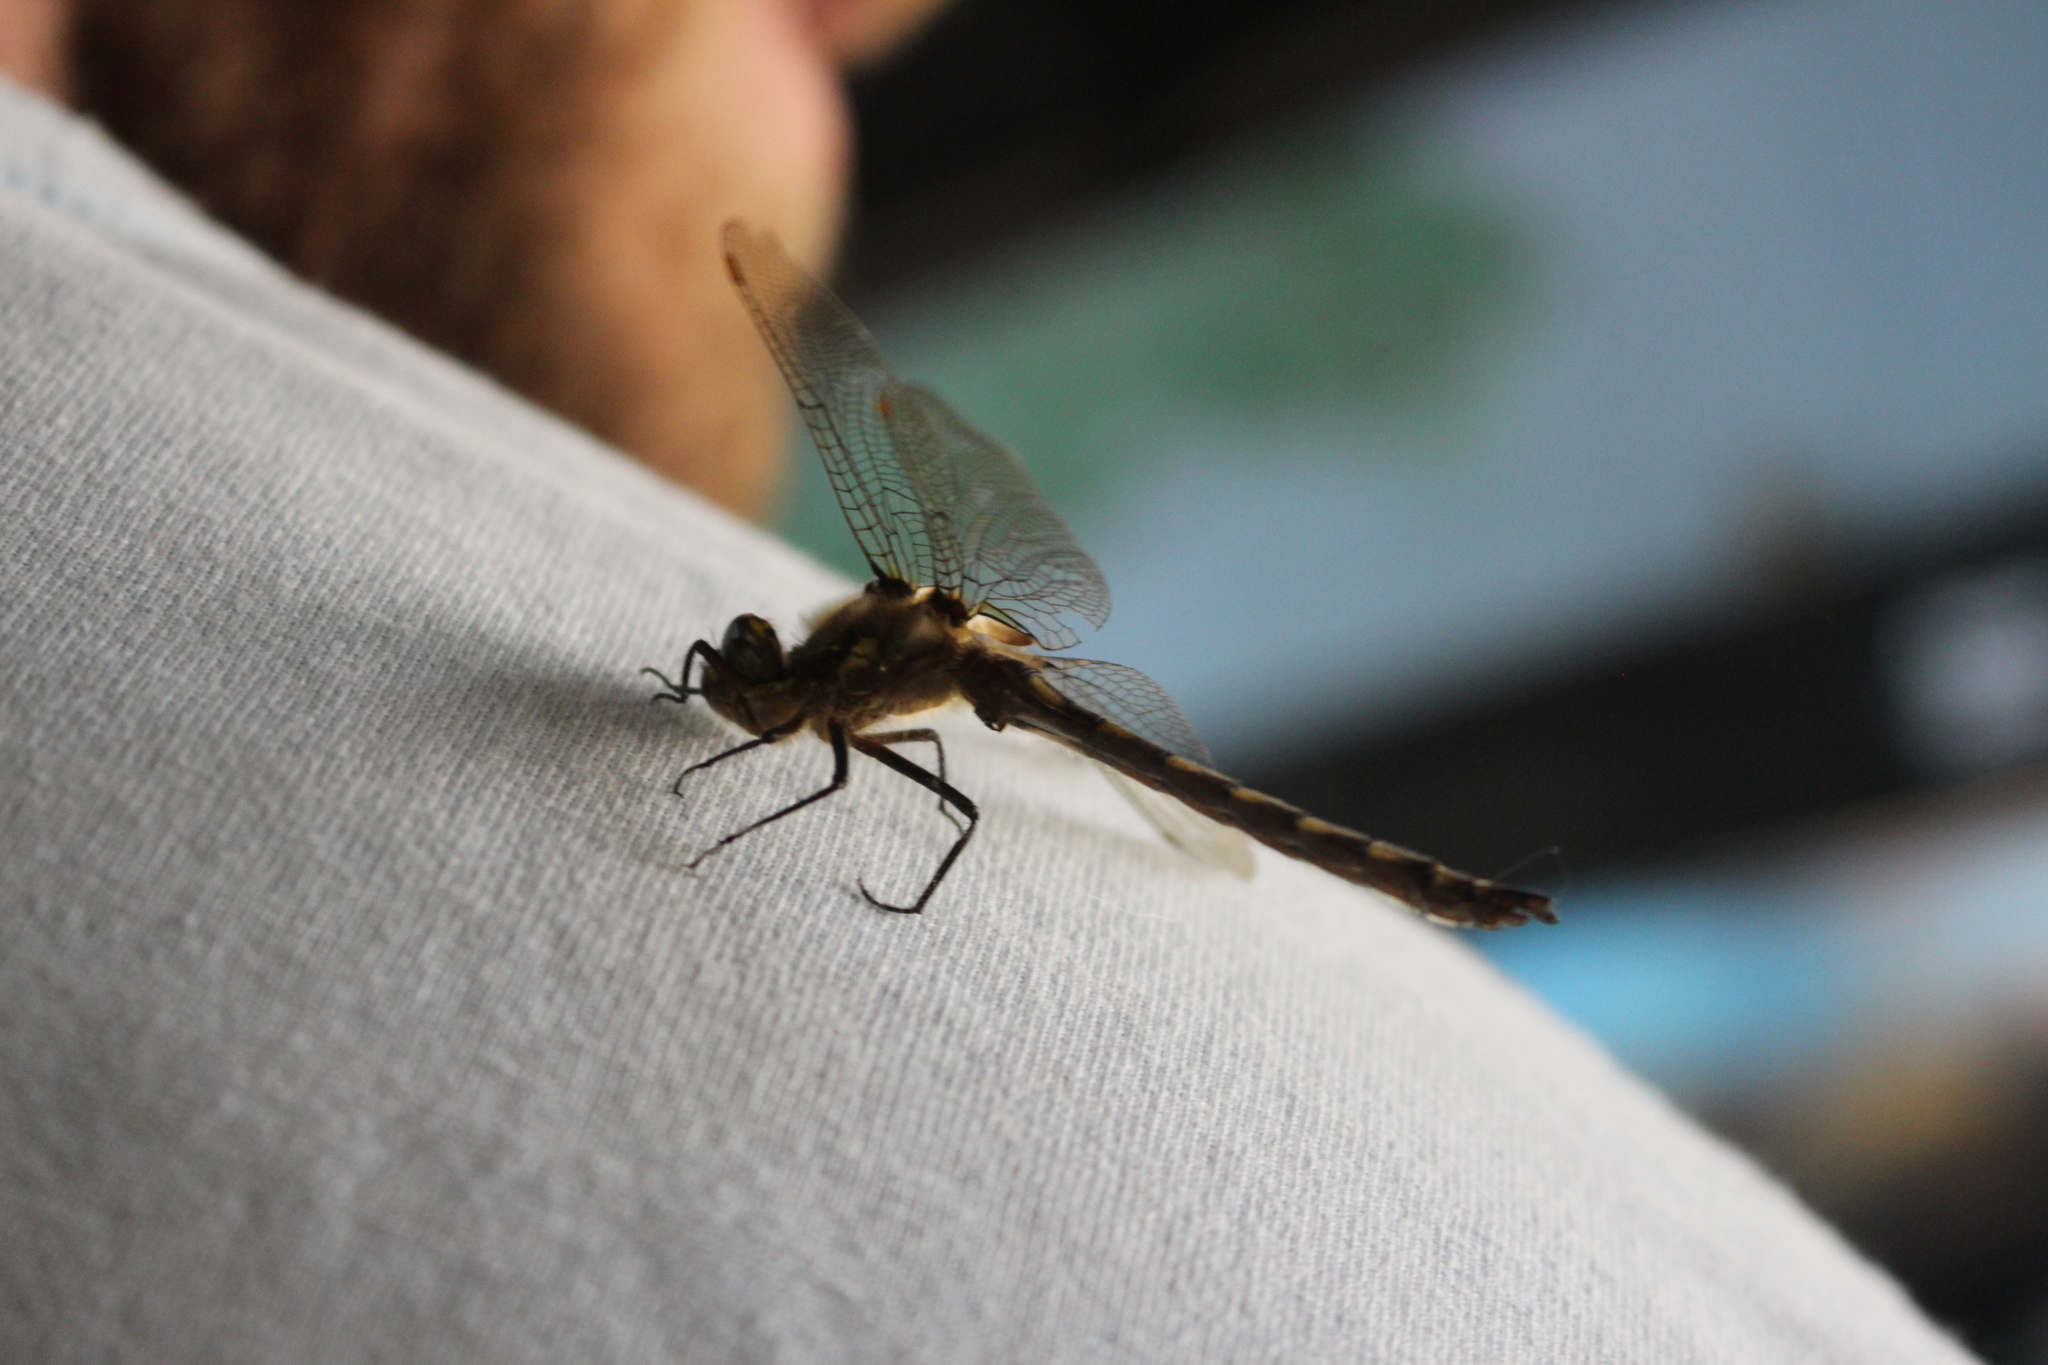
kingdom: Animalia
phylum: Arthropoda
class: Insecta
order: Odonata
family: Corduliidae
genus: Procordulia
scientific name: Procordulia grayi
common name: Yellow spotted dragonfly
